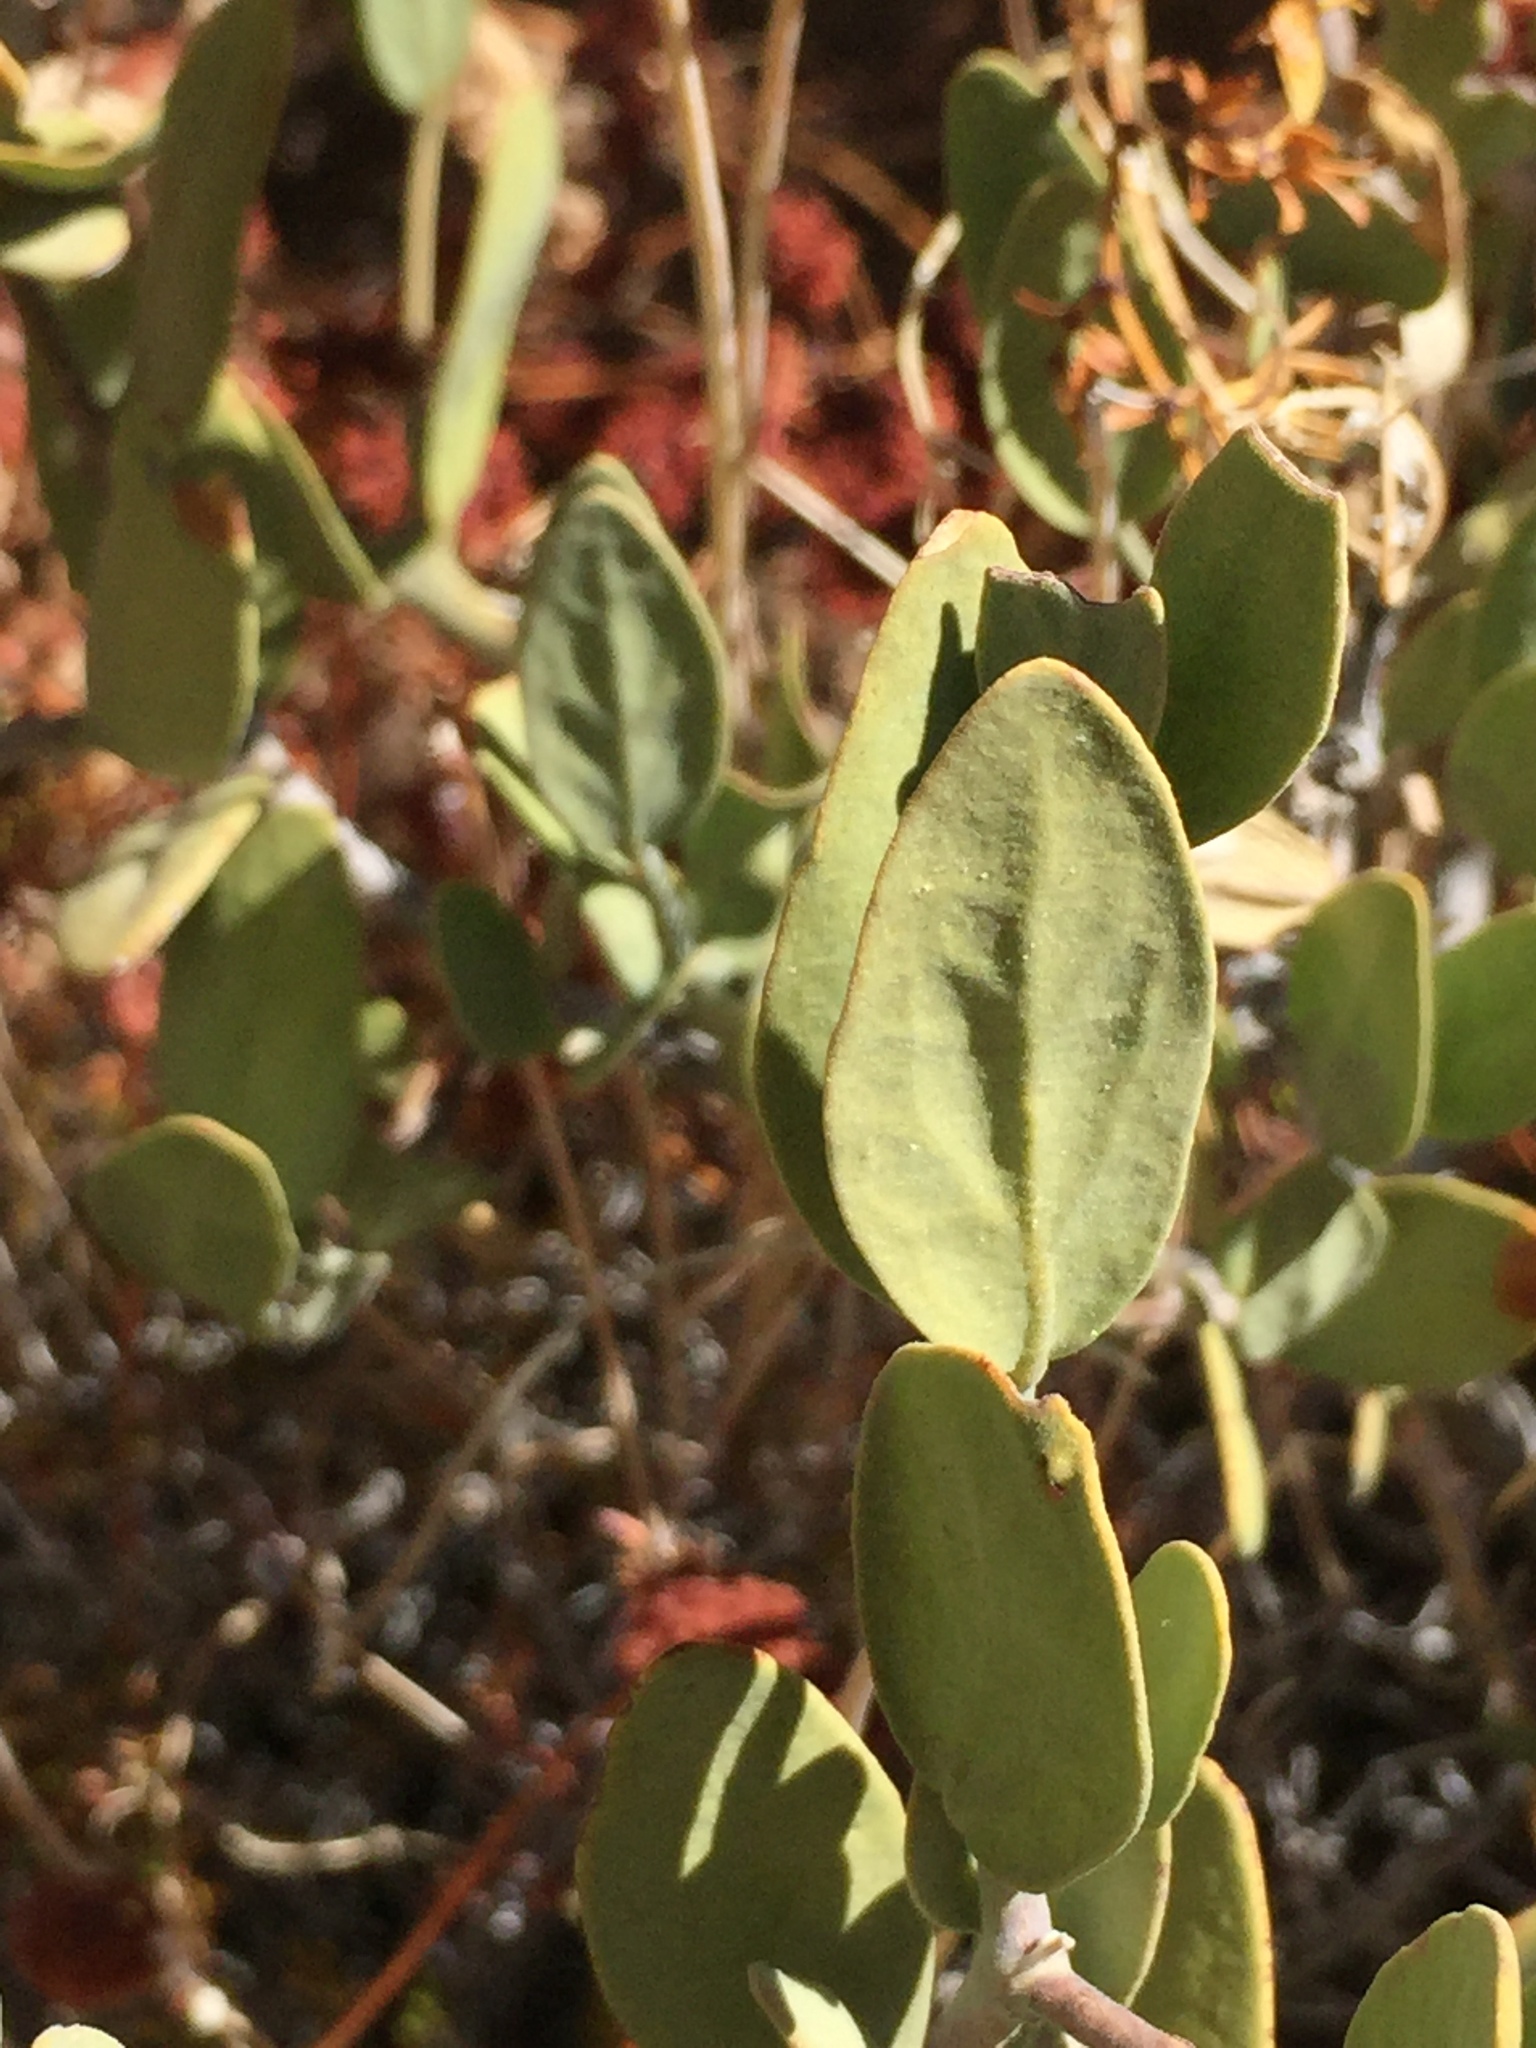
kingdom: Plantae
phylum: Tracheophyta
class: Magnoliopsida
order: Caryophyllales
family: Simmondsiaceae
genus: Simmondsia
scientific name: Simmondsia chinensis
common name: Jojoba
